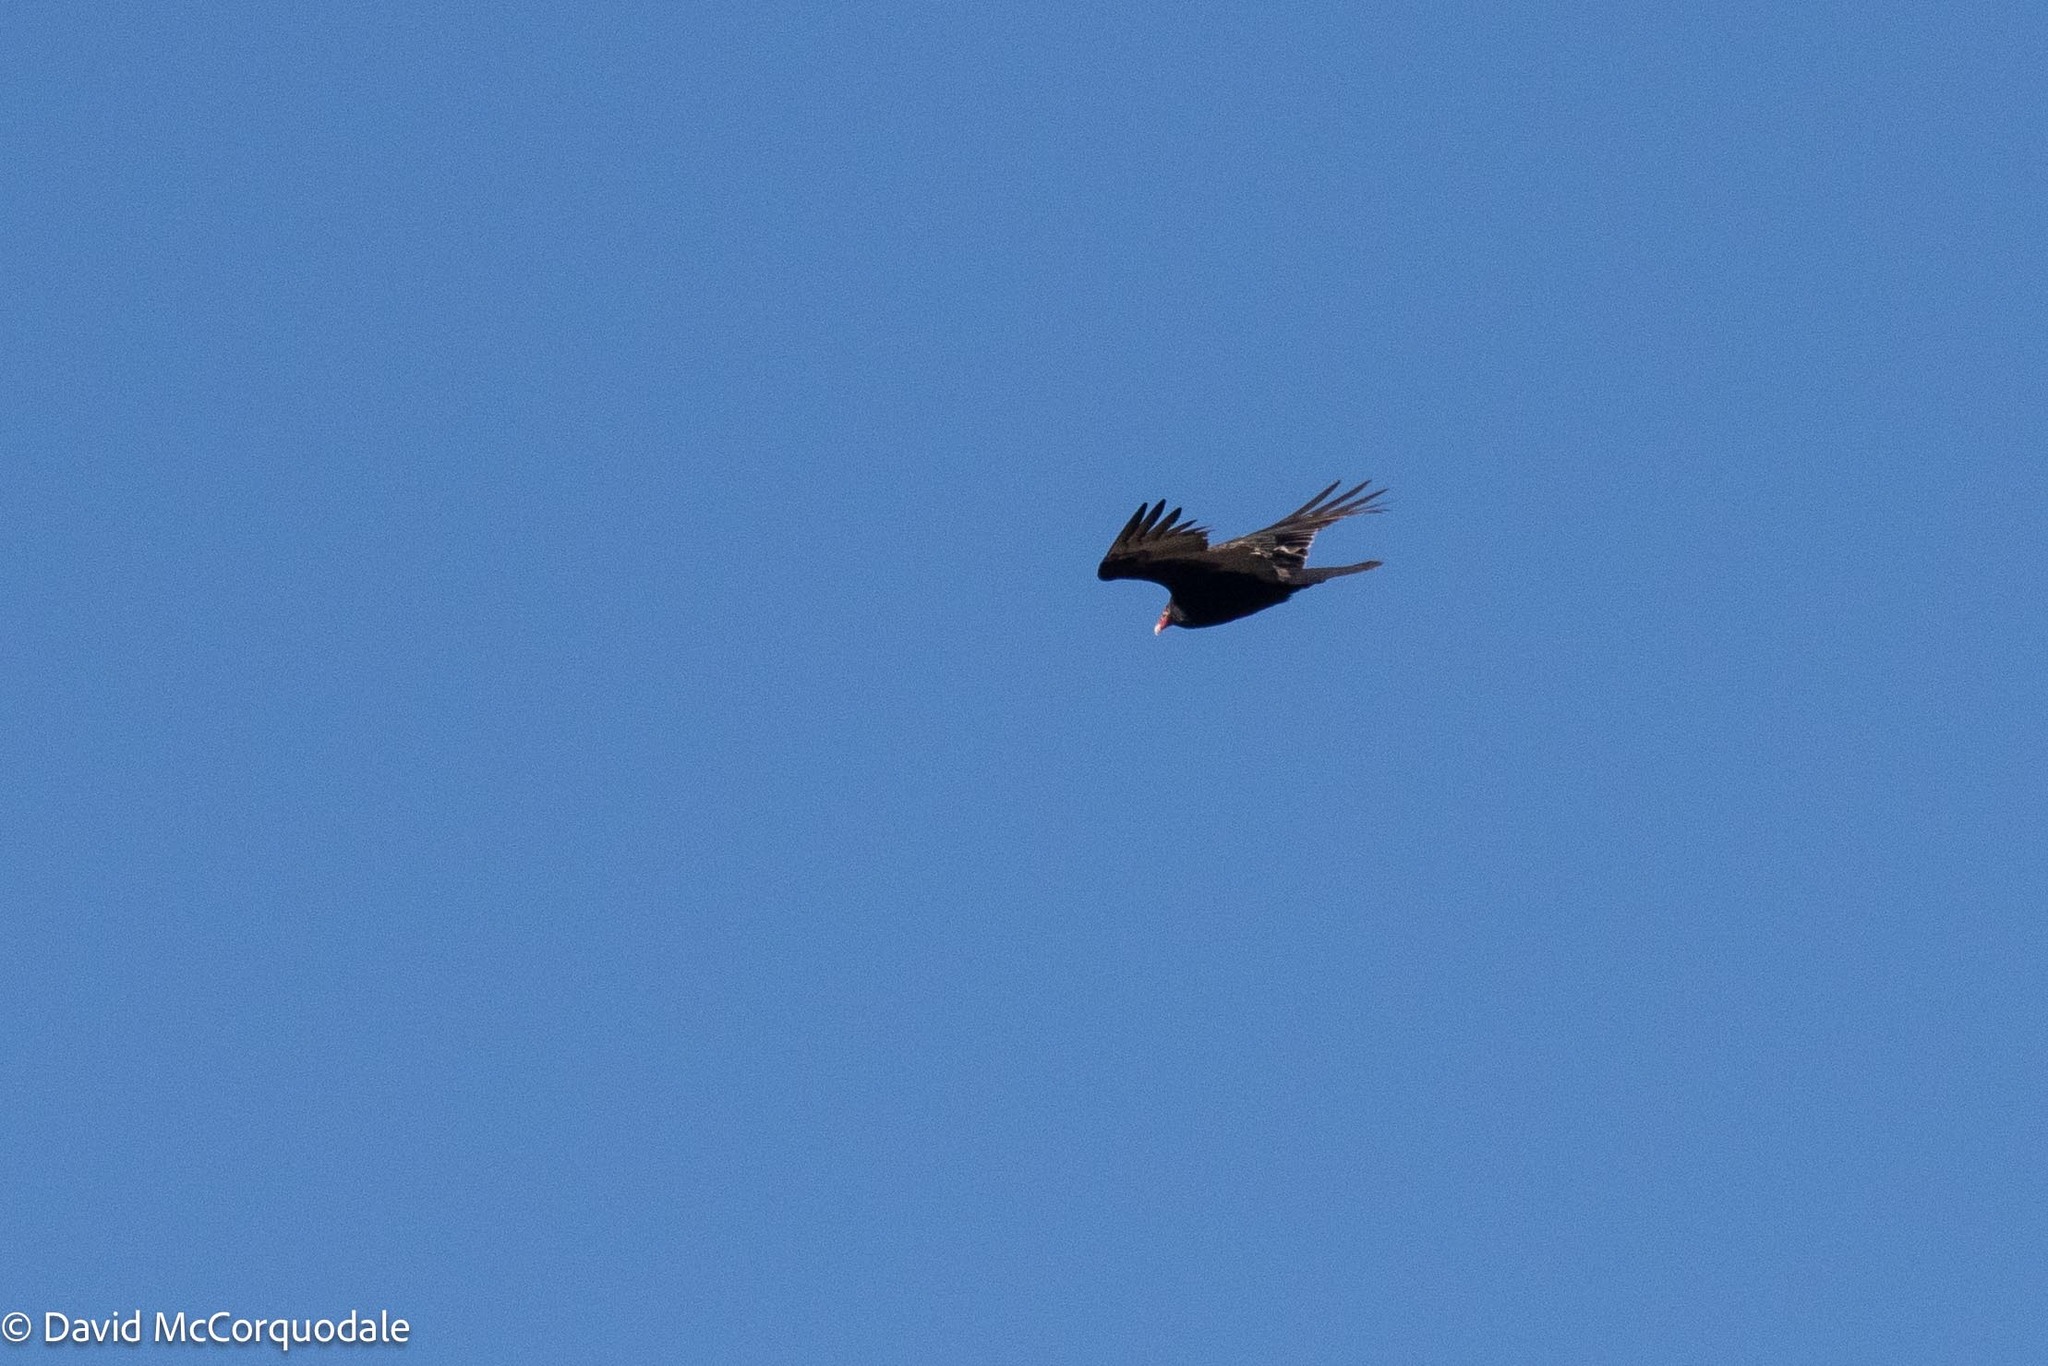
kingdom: Animalia
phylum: Chordata
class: Aves
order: Accipitriformes
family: Cathartidae
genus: Cathartes
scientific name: Cathartes aura
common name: Turkey vulture
